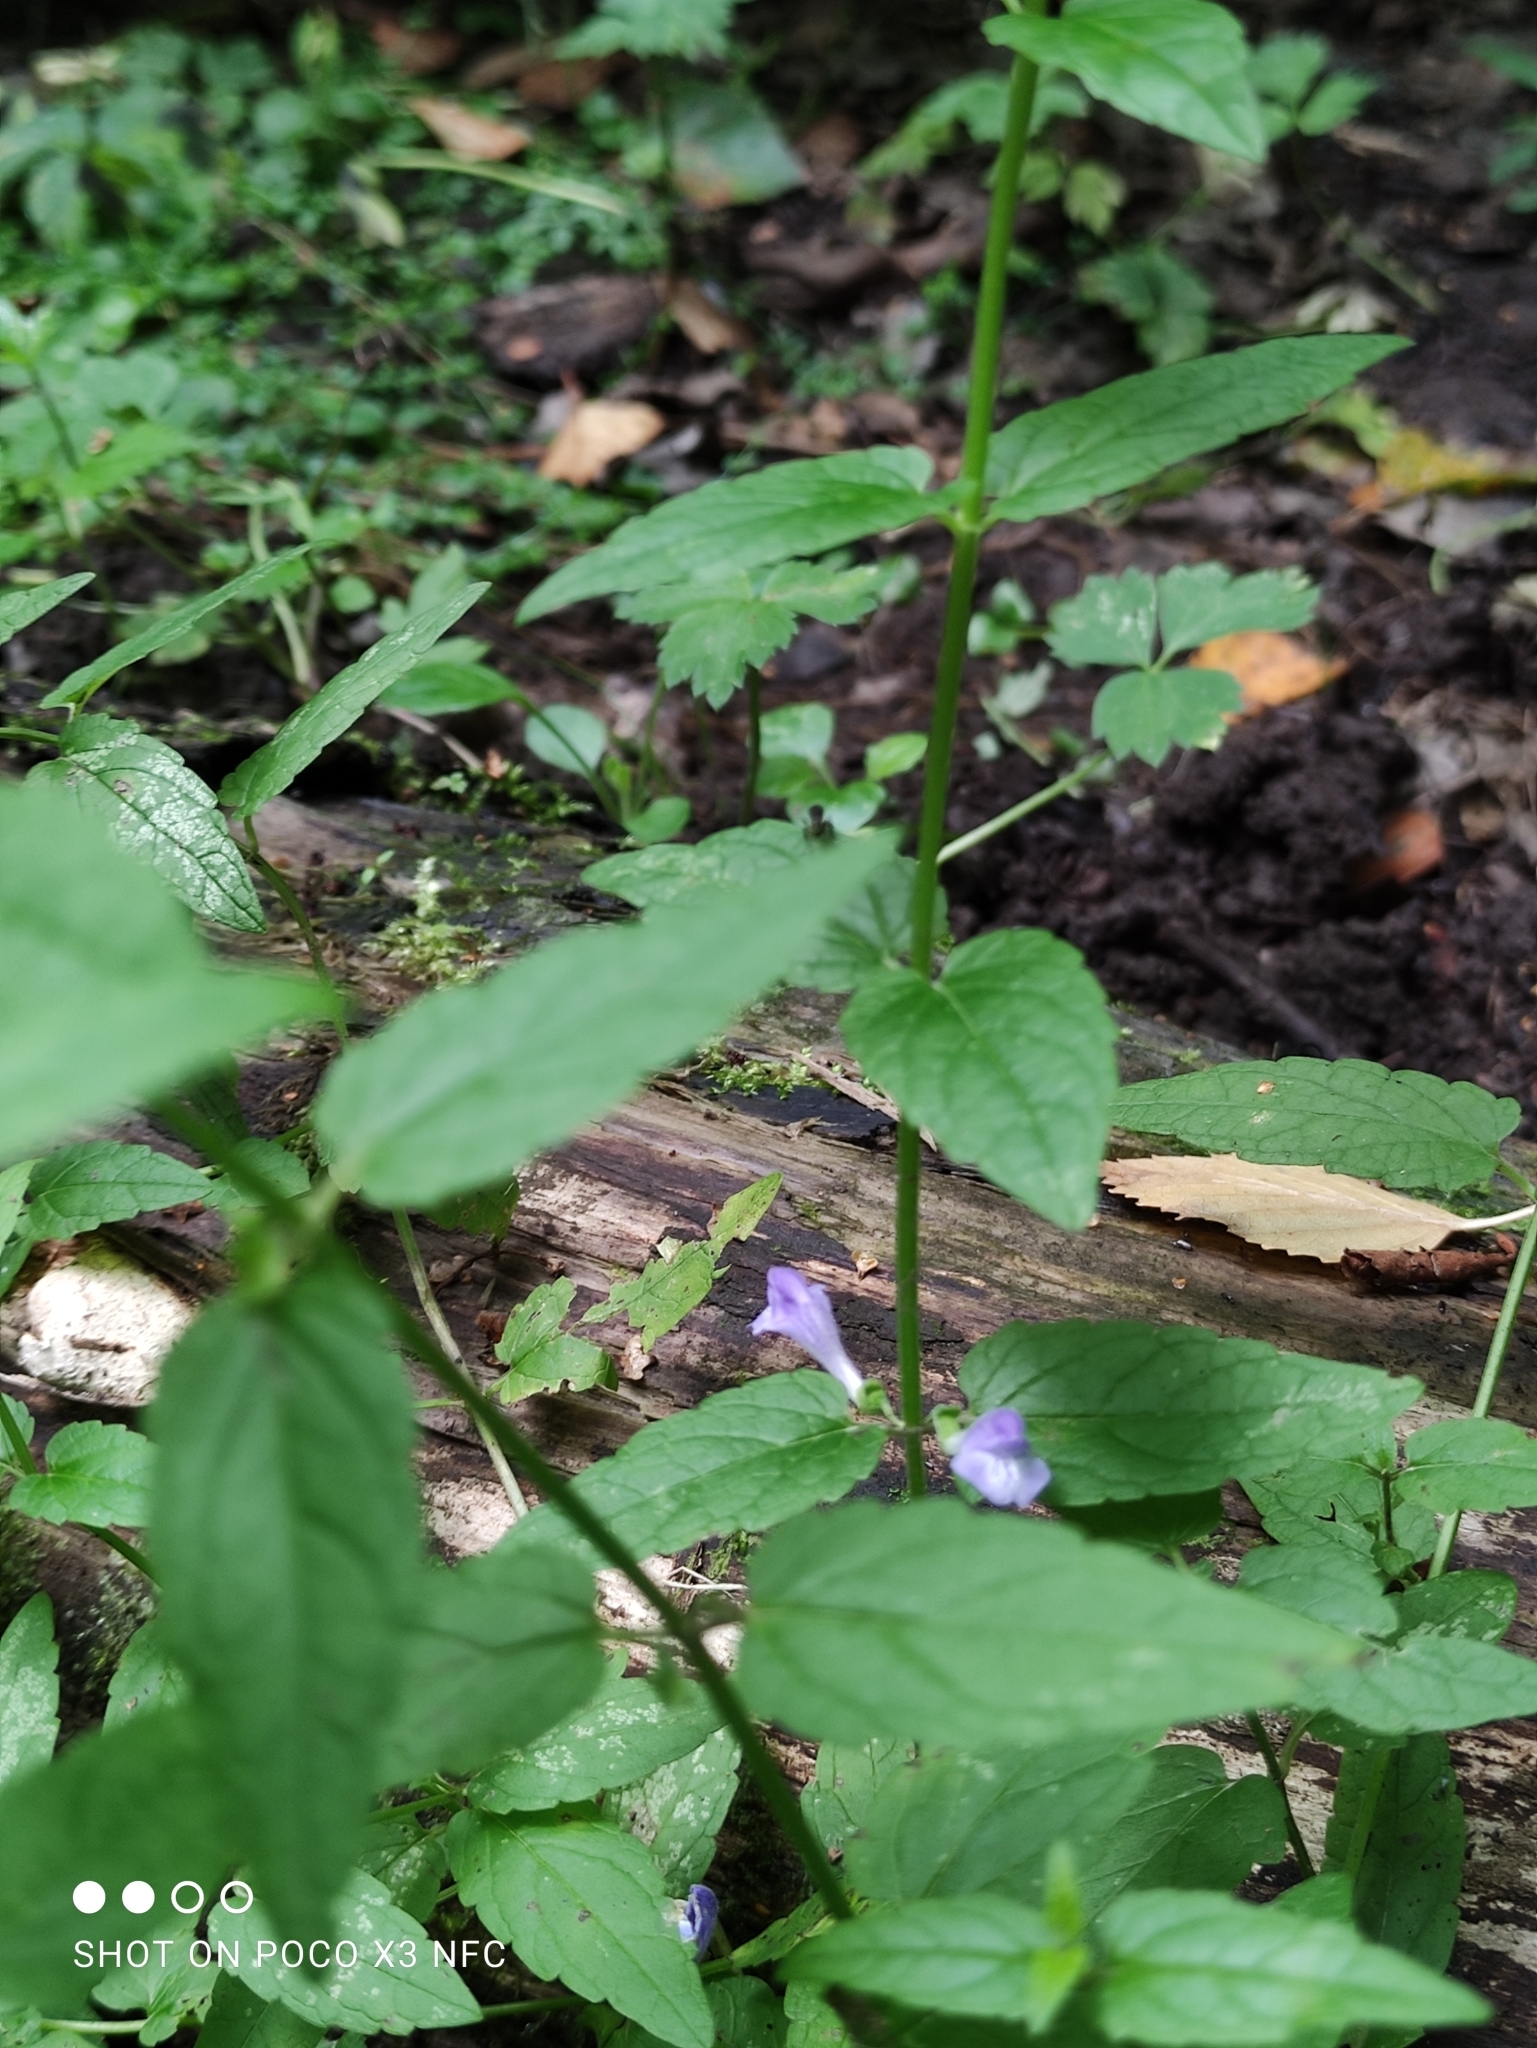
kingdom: Plantae
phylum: Tracheophyta
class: Magnoliopsida
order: Lamiales
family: Lamiaceae
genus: Scutellaria
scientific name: Scutellaria galericulata
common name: Skullcap
